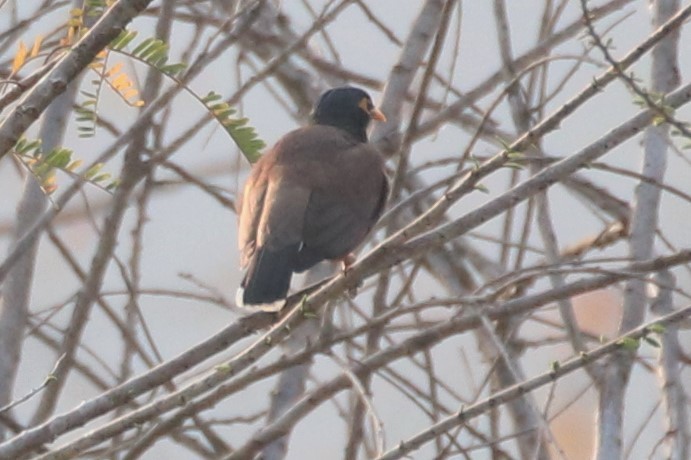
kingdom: Animalia
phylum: Chordata
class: Aves
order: Passeriformes
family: Sturnidae
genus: Acridotheres
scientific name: Acridotheres tristis
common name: Common myna
